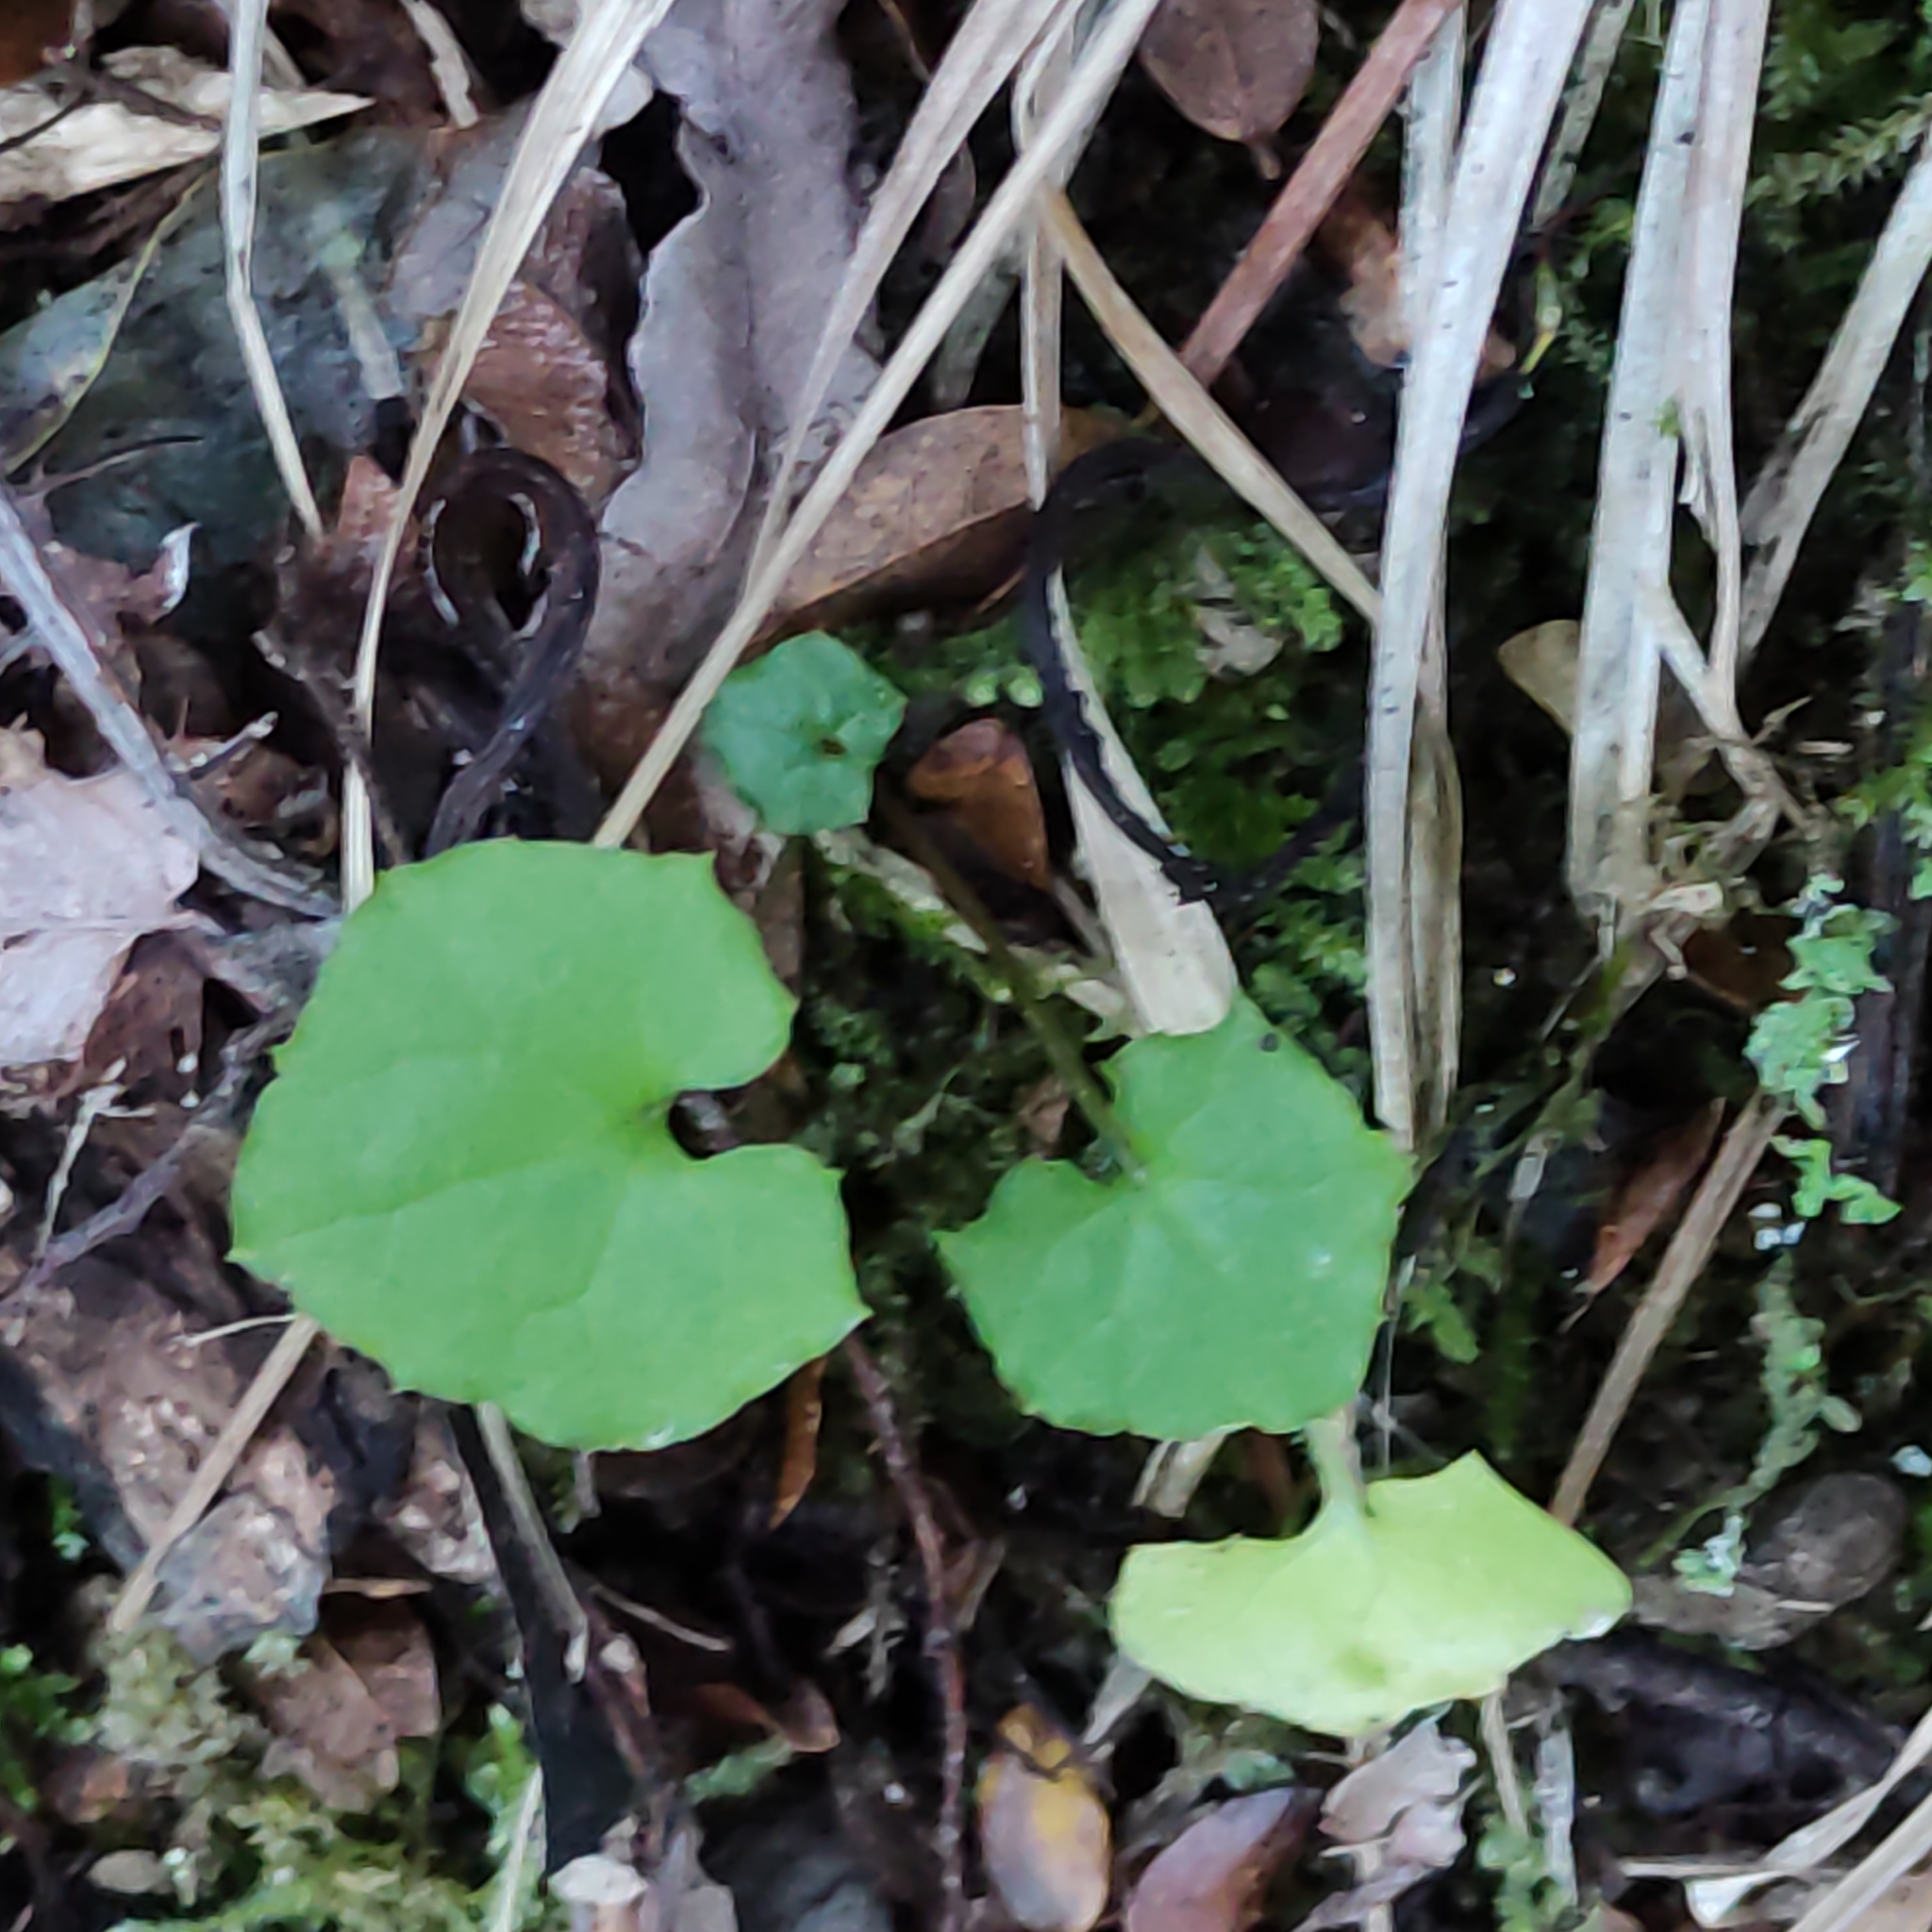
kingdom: Plantae
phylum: Tracheophyta
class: Magnoliopsida
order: Asterales
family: Asteraceae
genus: Mycelis
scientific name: Mycelis muralis
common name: Wall lettuce
